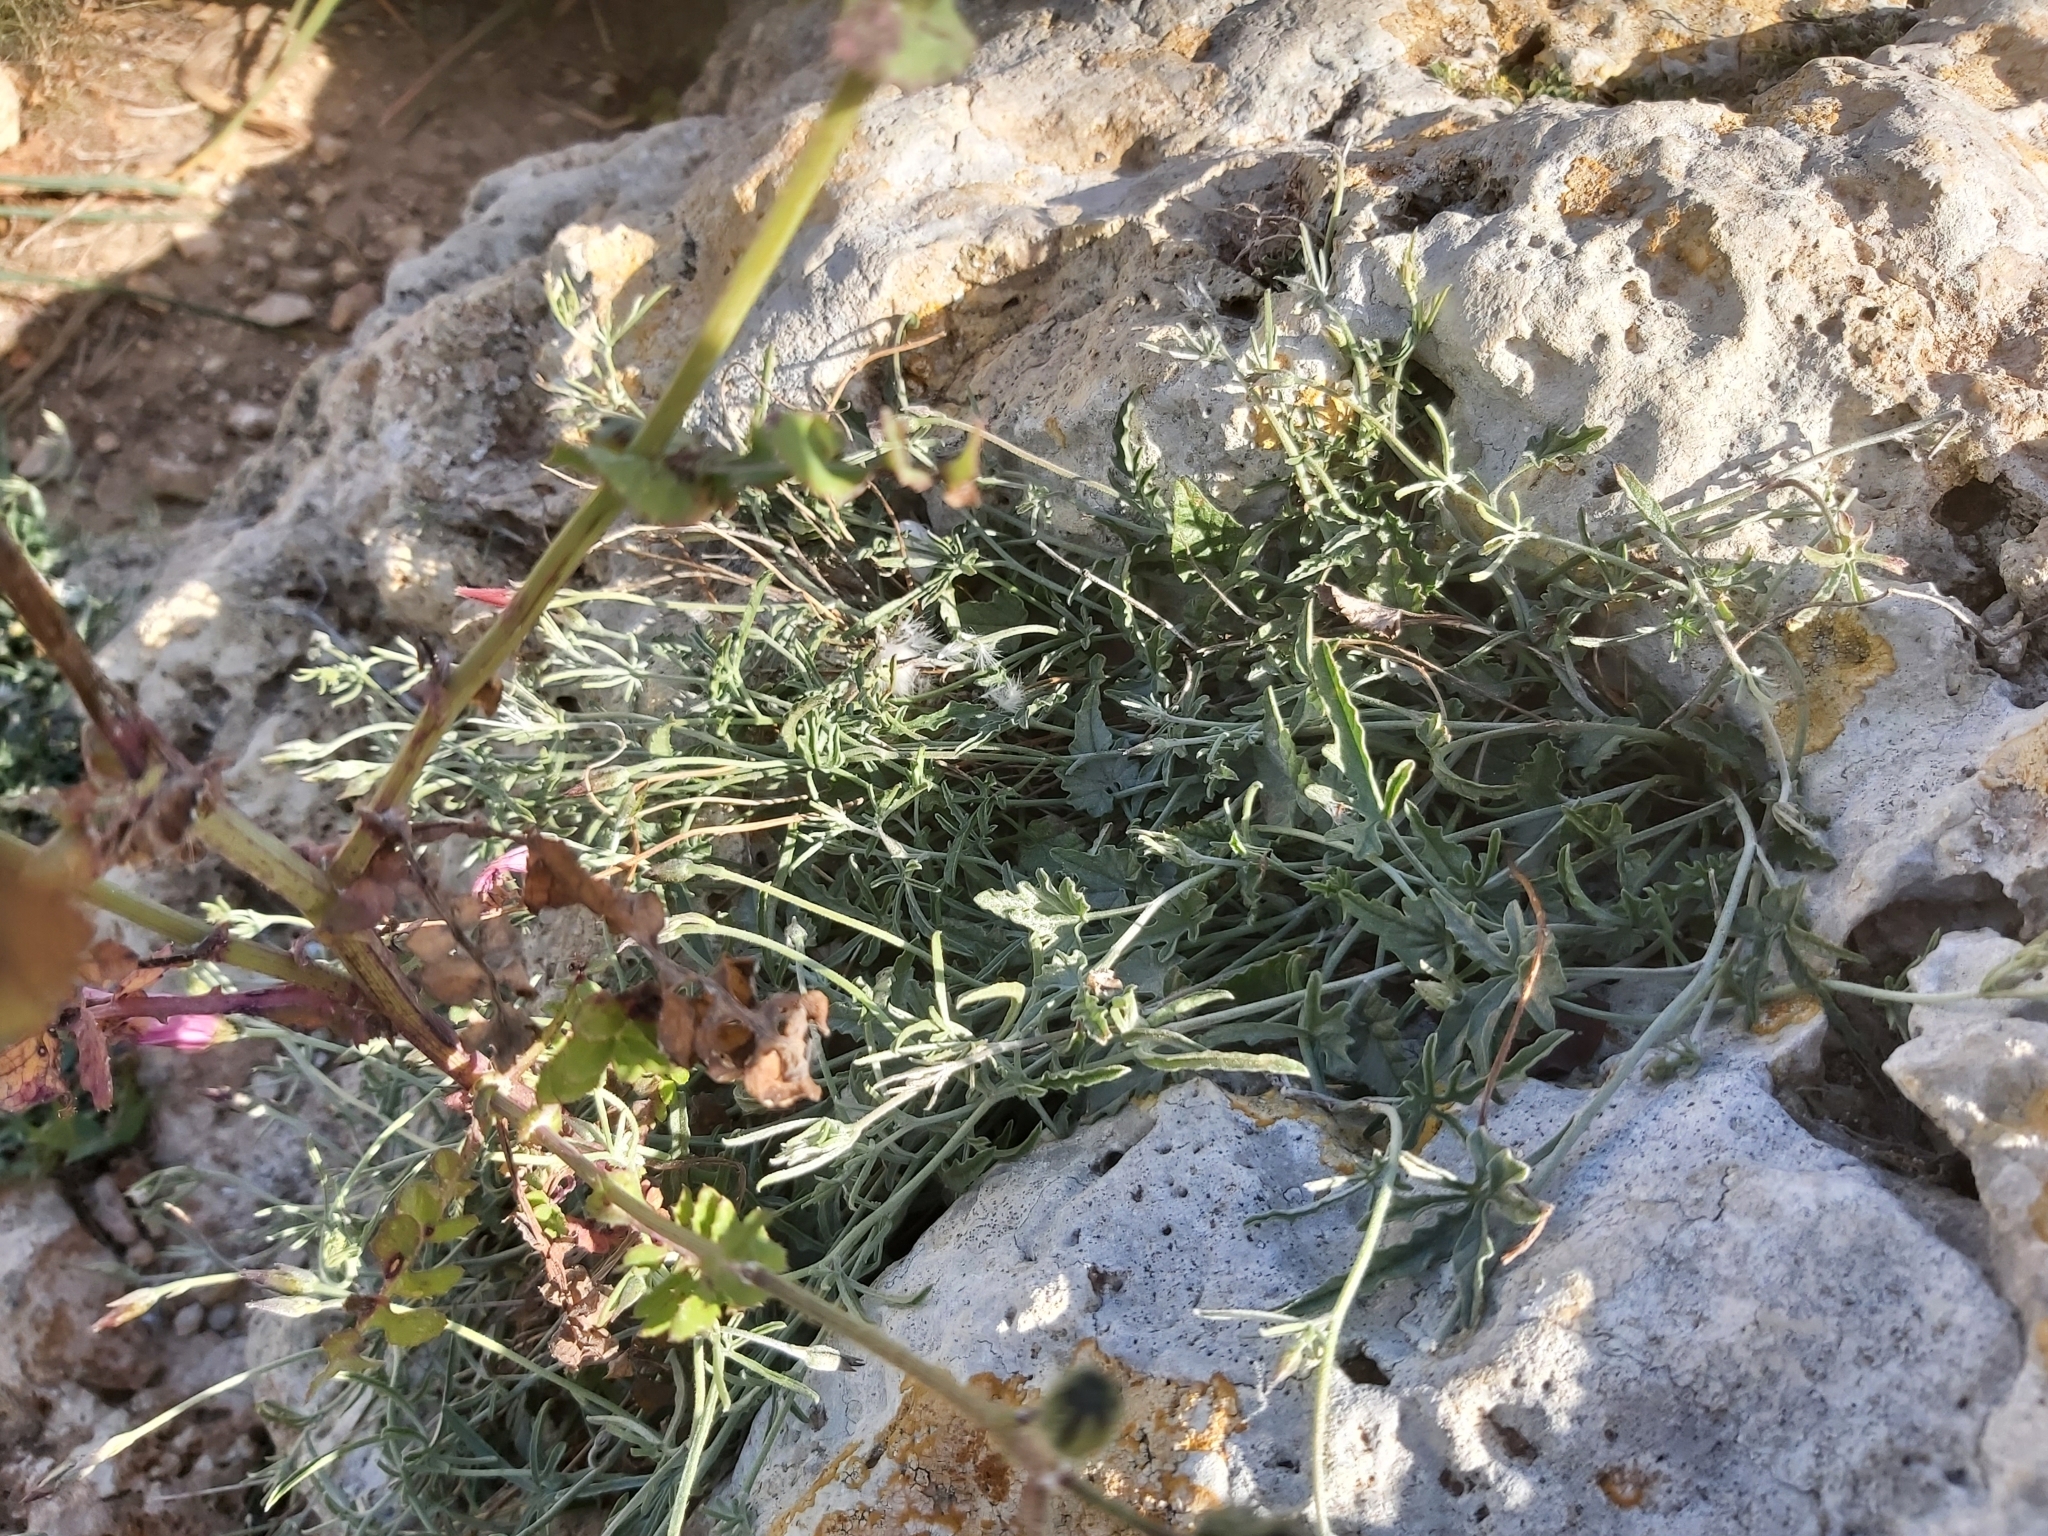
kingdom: Plantae
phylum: Tracheophyta
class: Magnoliopsida
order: Solanales
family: Convolvulaceae
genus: Convolvulus
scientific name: Convolvulus elegantissimus
